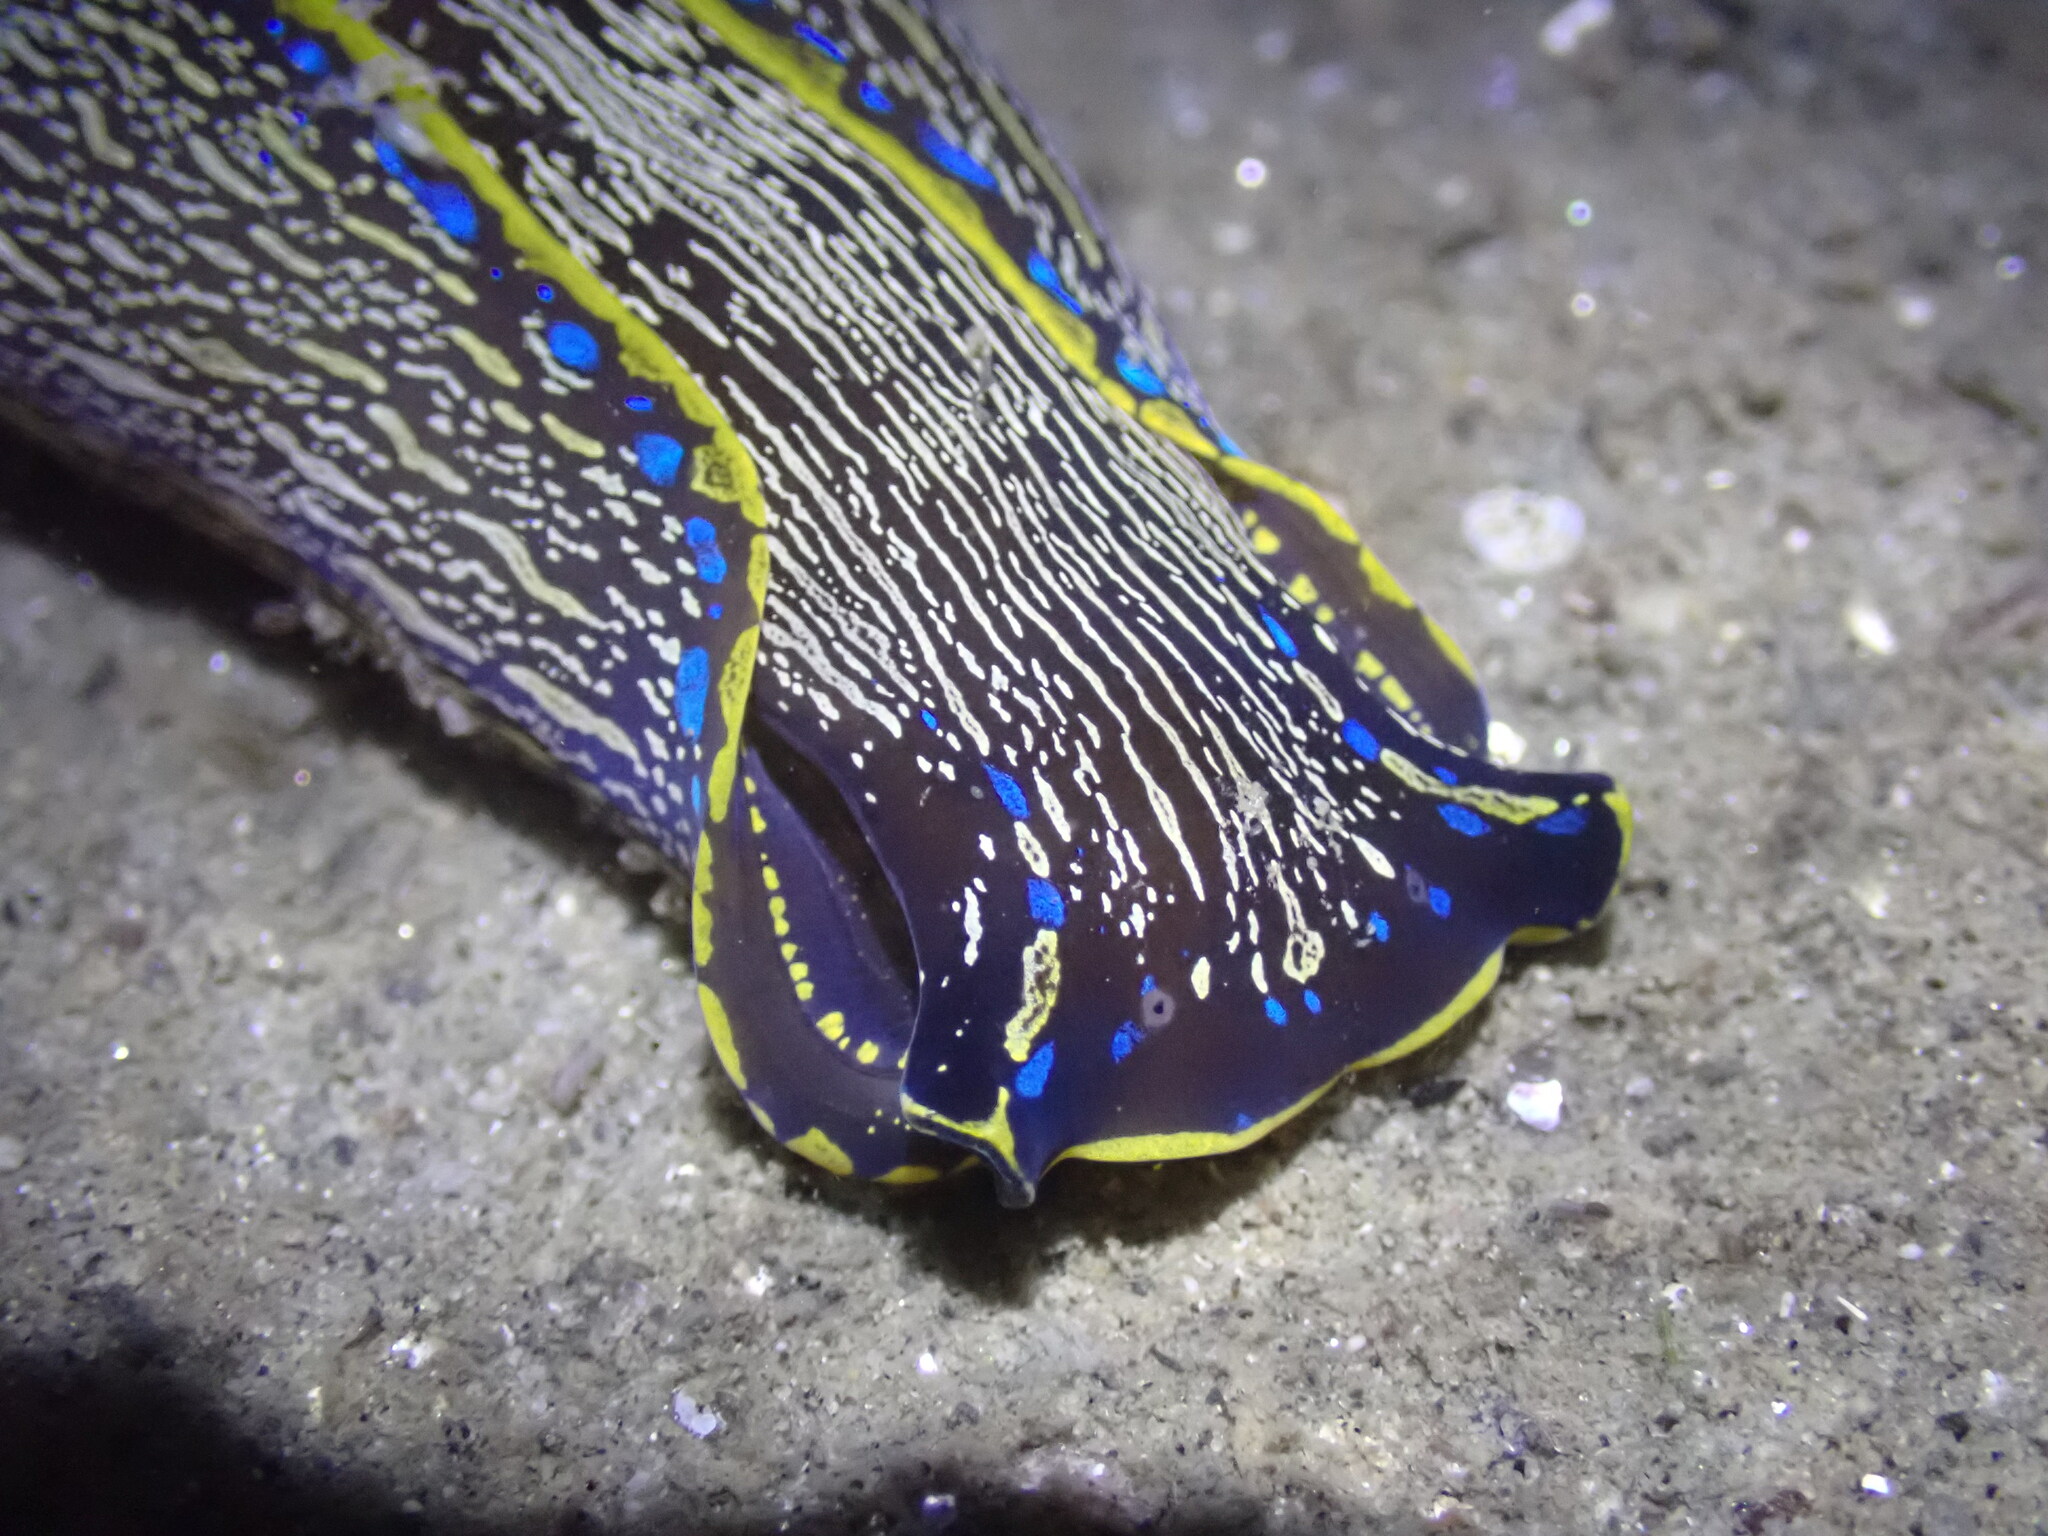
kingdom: Animalia
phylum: Mollusca
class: Gastropoda
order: Cephalaspidea
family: Aglajidae
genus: Navanax
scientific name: Navanax inermis
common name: California aglaja
